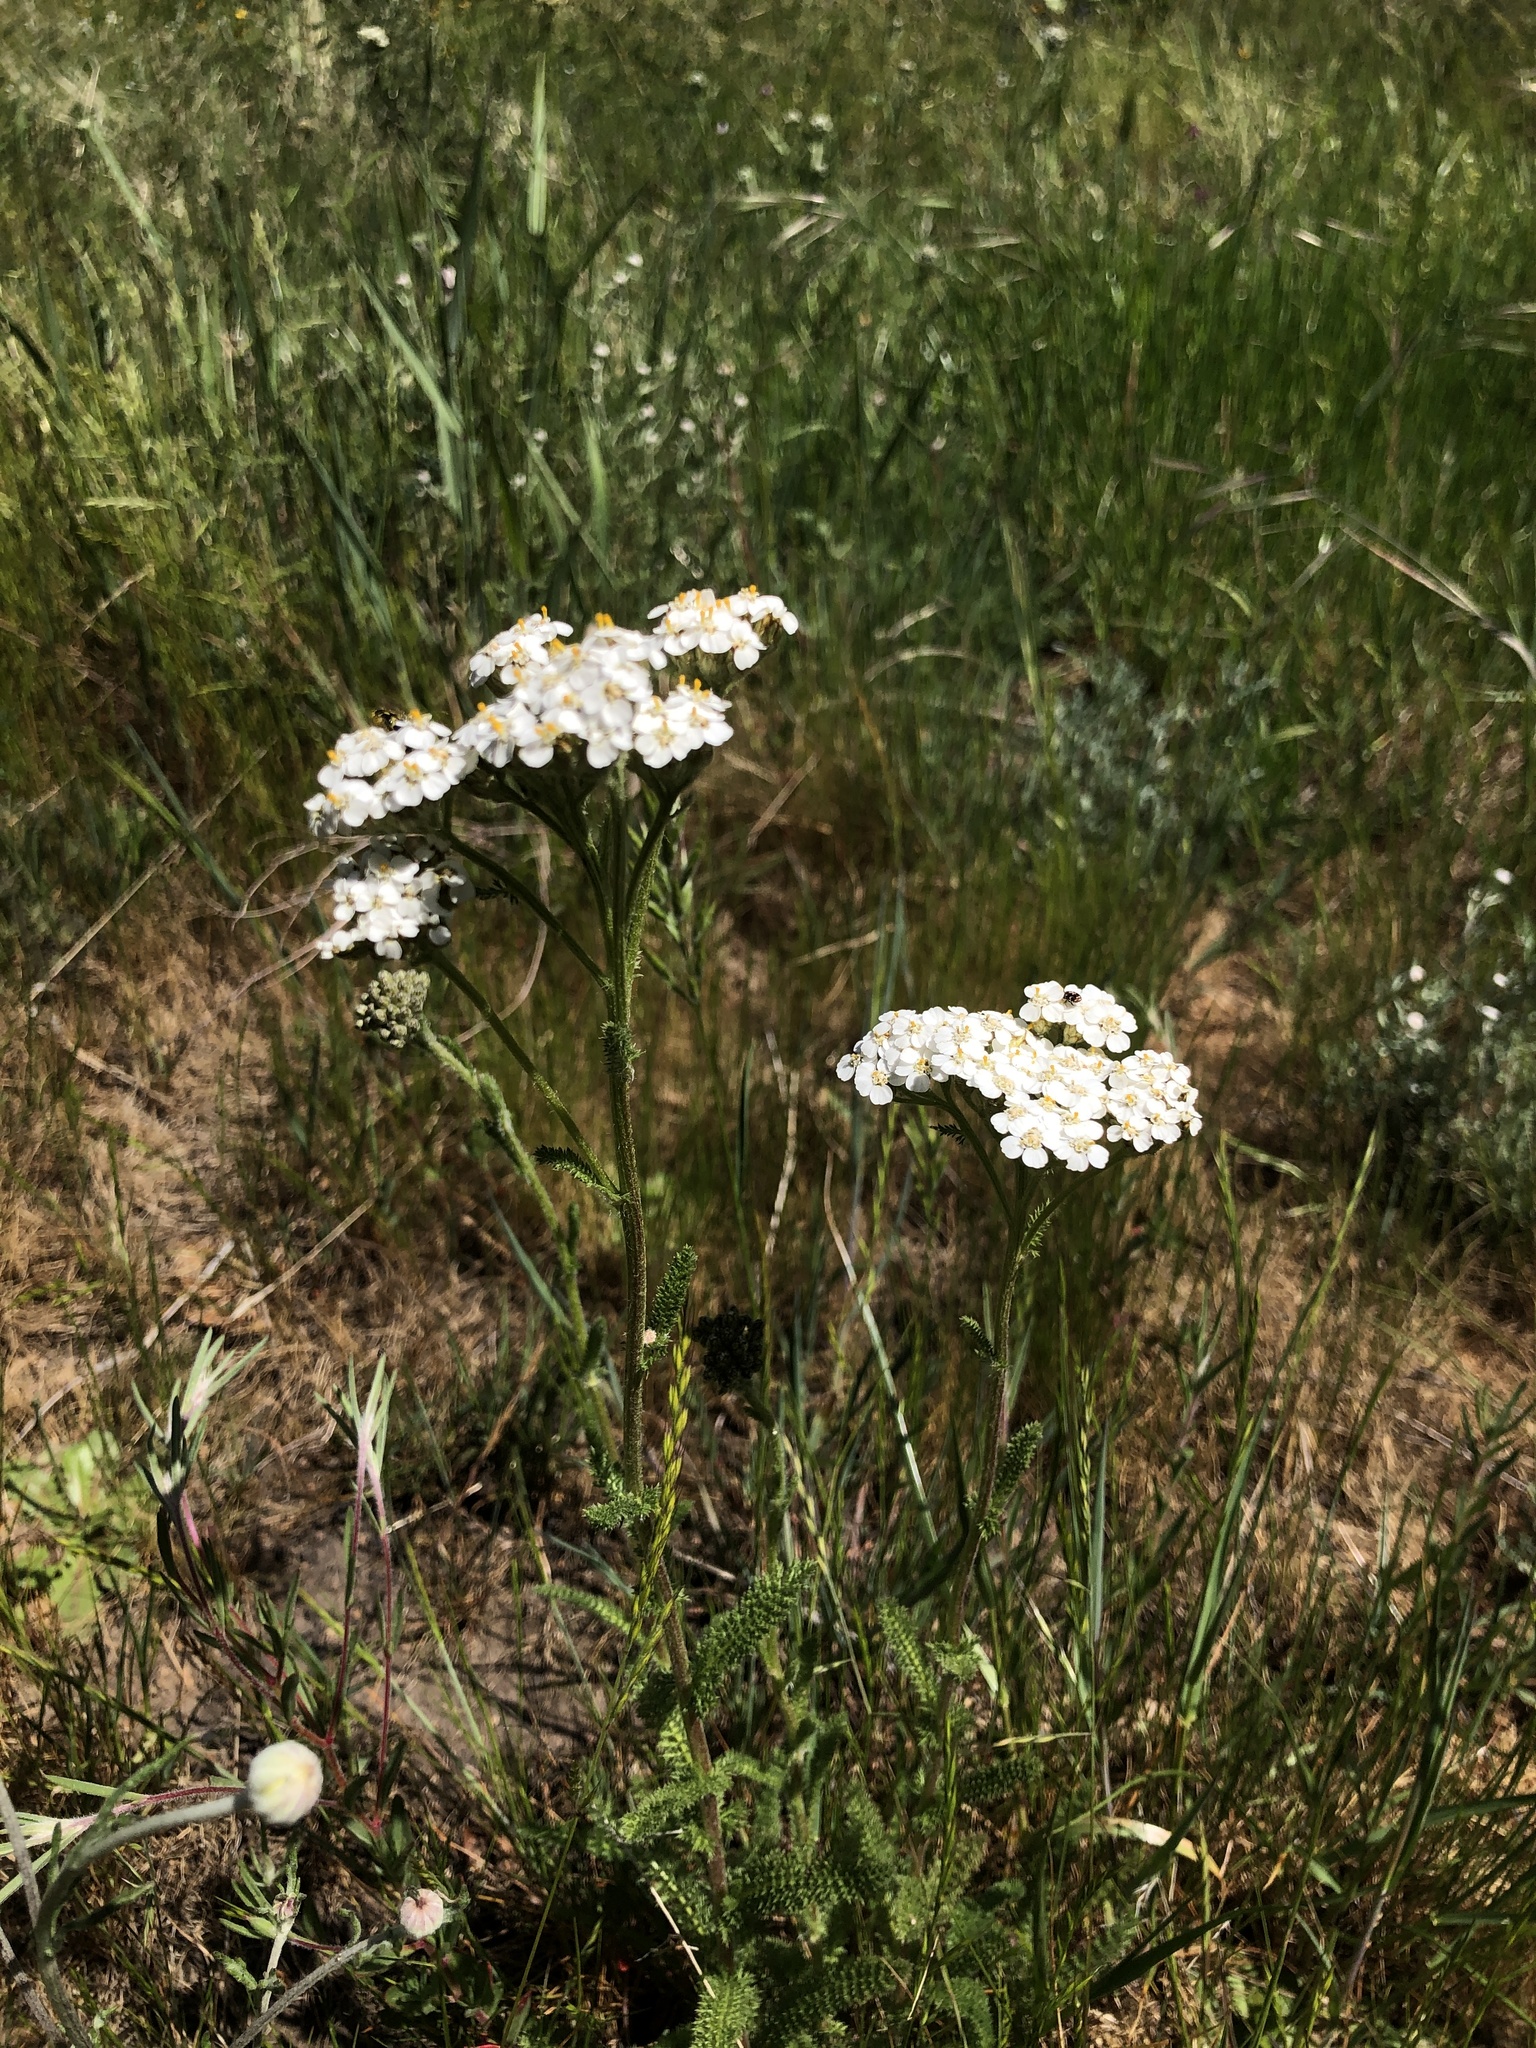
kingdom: Plantae
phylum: Tracheophyta
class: Magnoliopsida
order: Asterales
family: Asteraceae
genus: Achillea
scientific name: Achillea millefolium
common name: Yarrow
